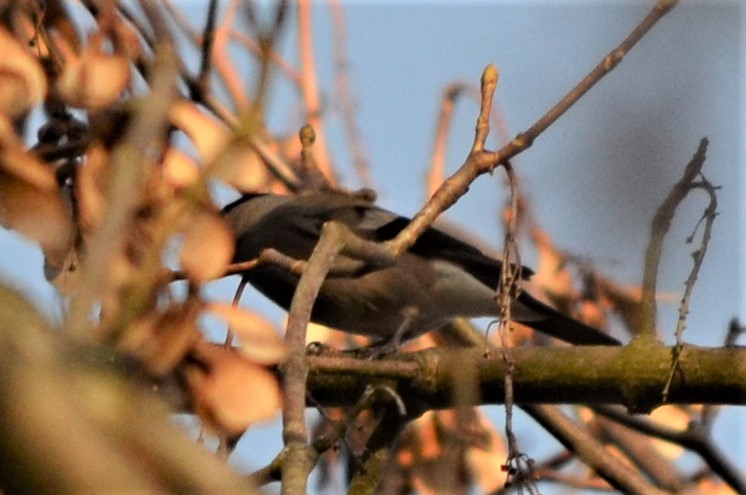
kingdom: Animalia
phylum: Chordata
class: Aves
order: Passeriformes
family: Fringillidae
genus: Pyrrhula
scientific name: Pyrrhula pyrrhula
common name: Eurasian bullfinch
